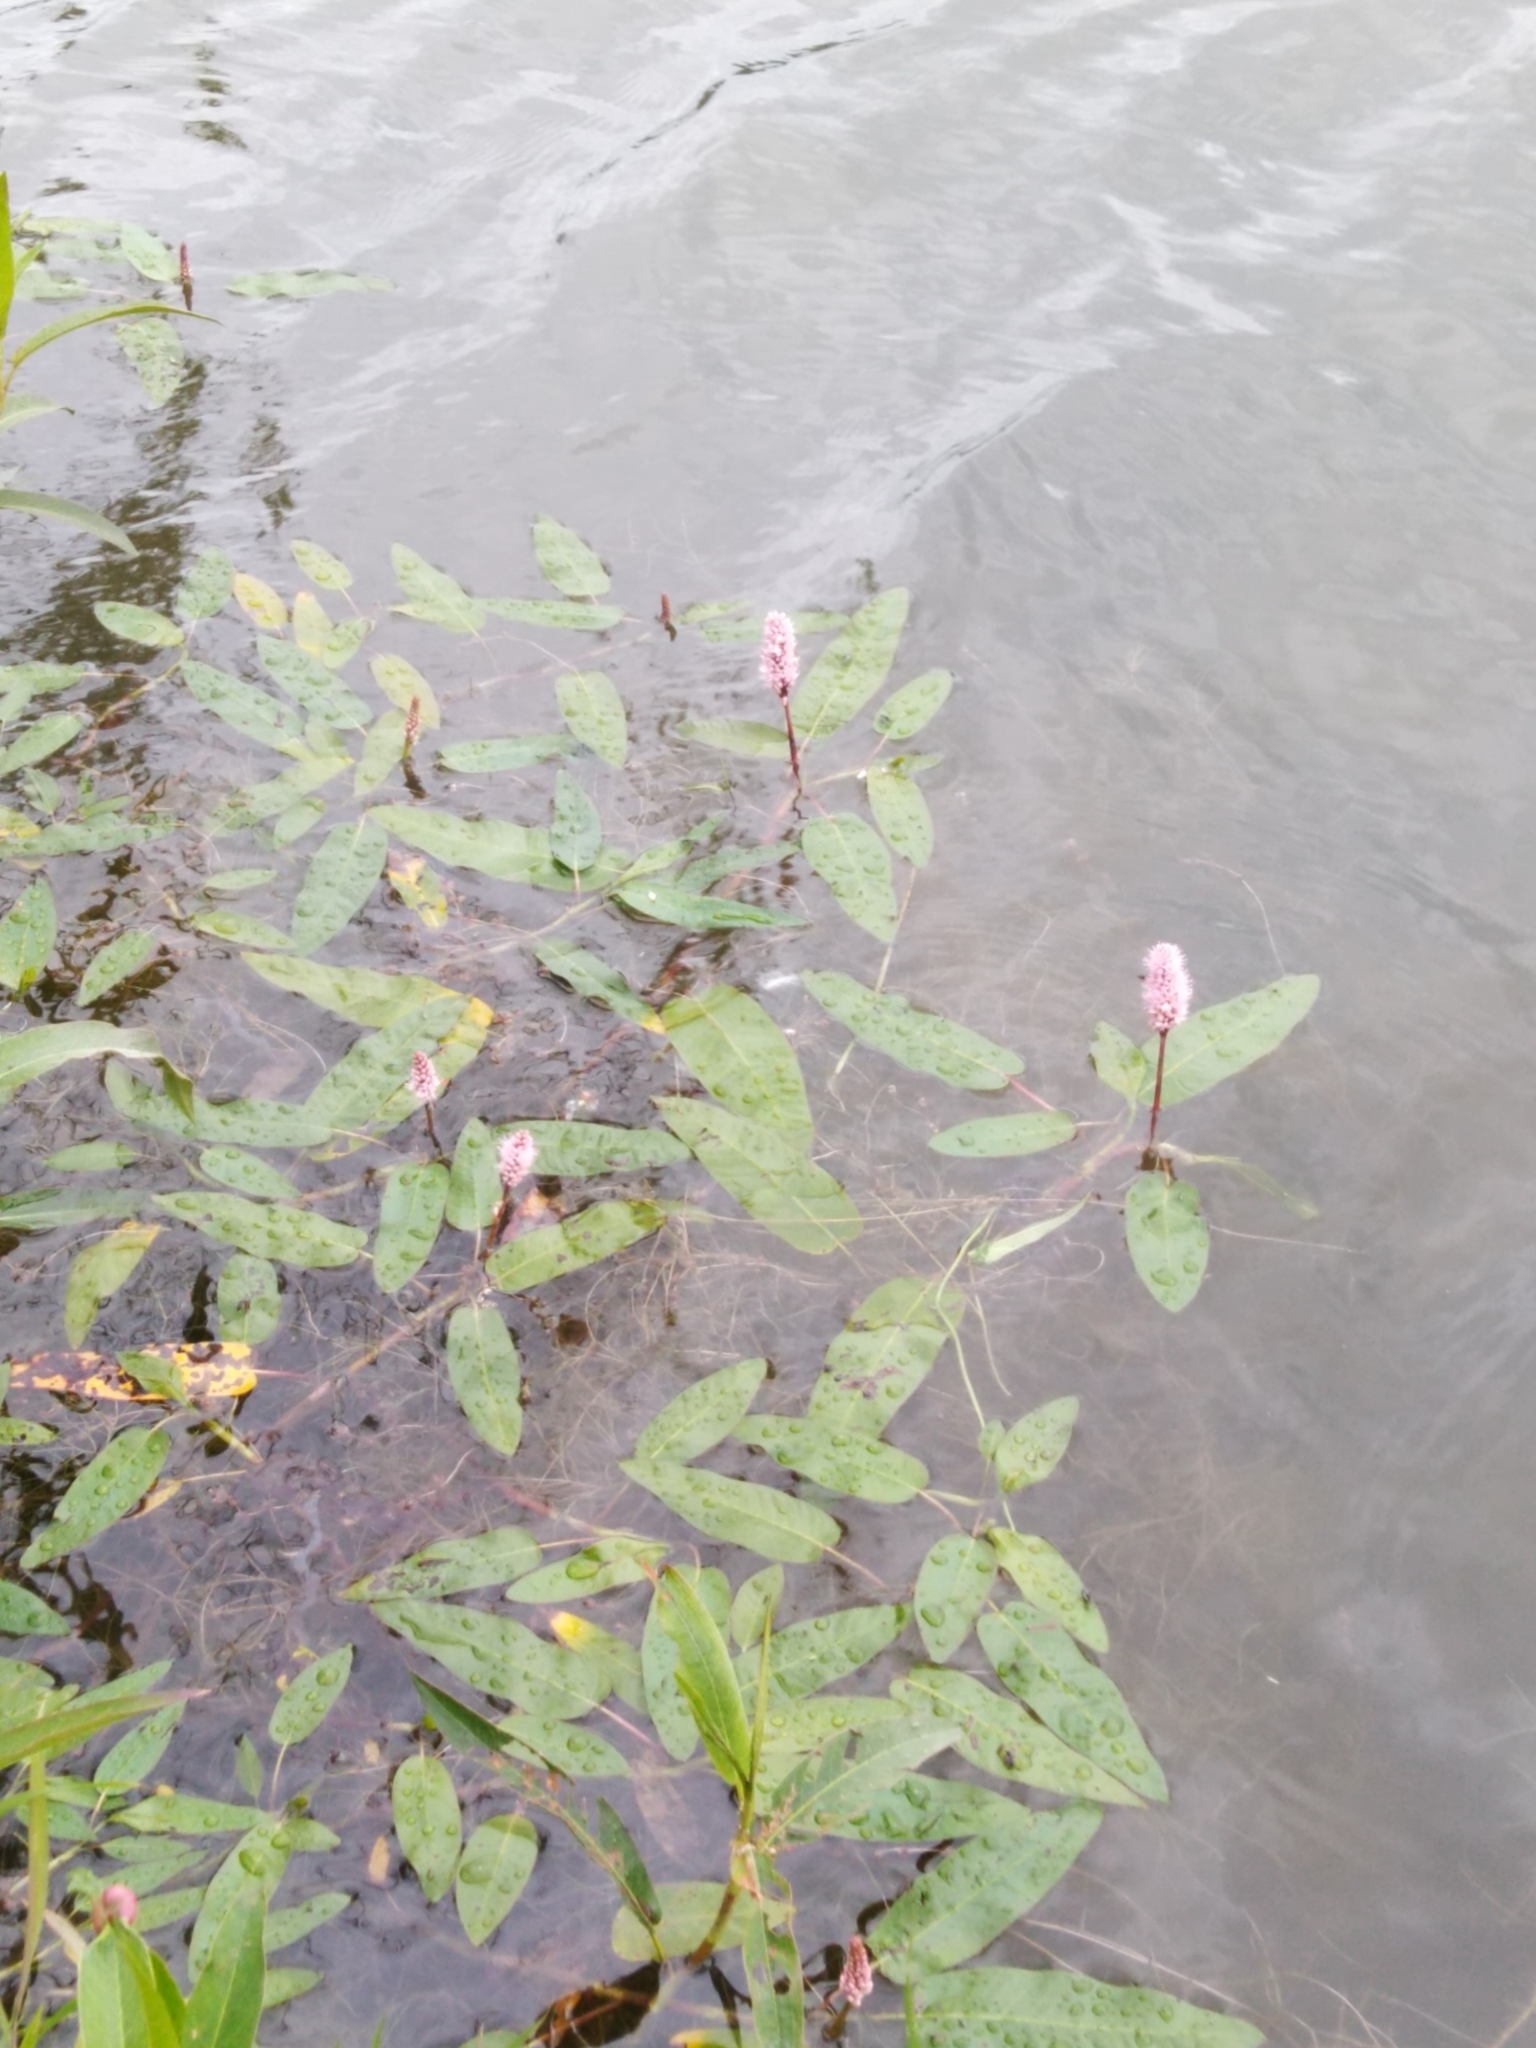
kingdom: Plantae
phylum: Tracheophyta
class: Magnoliopsida
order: Caryophyllales
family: Polygonaceae
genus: Persicaria
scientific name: Persicaria amphibia
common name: Amphibious bistort
